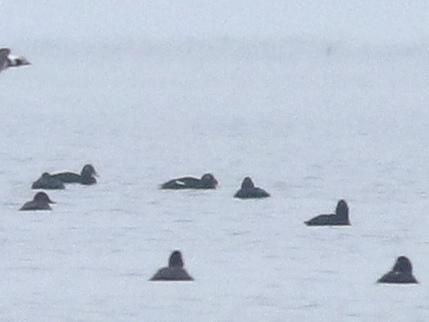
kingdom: Animalia
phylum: Chordata
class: Aves
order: Anseriformes
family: Anatidae
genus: Melanitta
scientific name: Melanitta stejnegeri
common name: Stejneger's scoter
